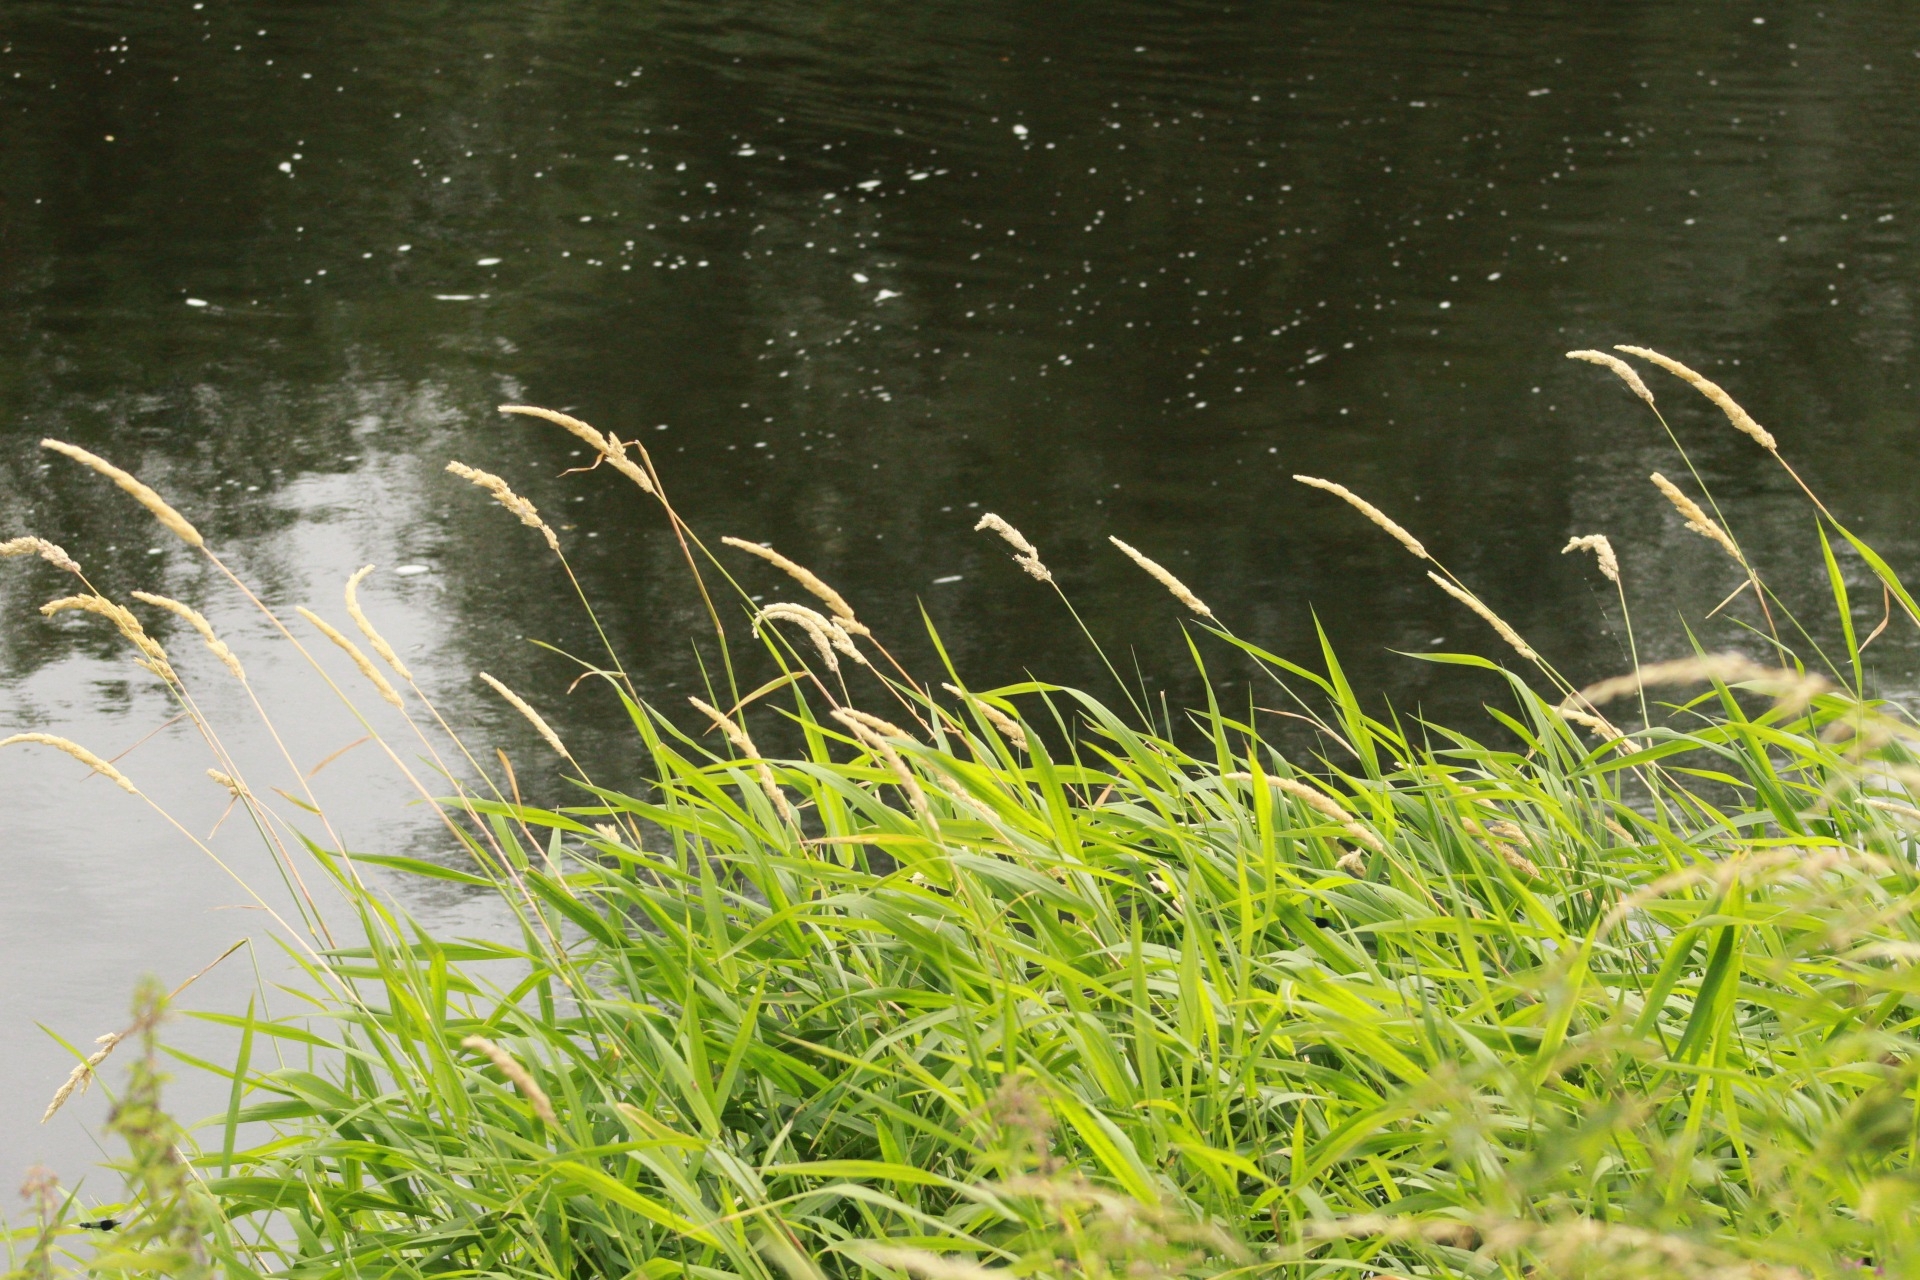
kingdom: Plantae
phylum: Tracheophyta
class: Liliopsida
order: Poales
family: Poaceae
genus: Phalaris
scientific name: Phalaris arundinacea
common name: Reed canary-grass
